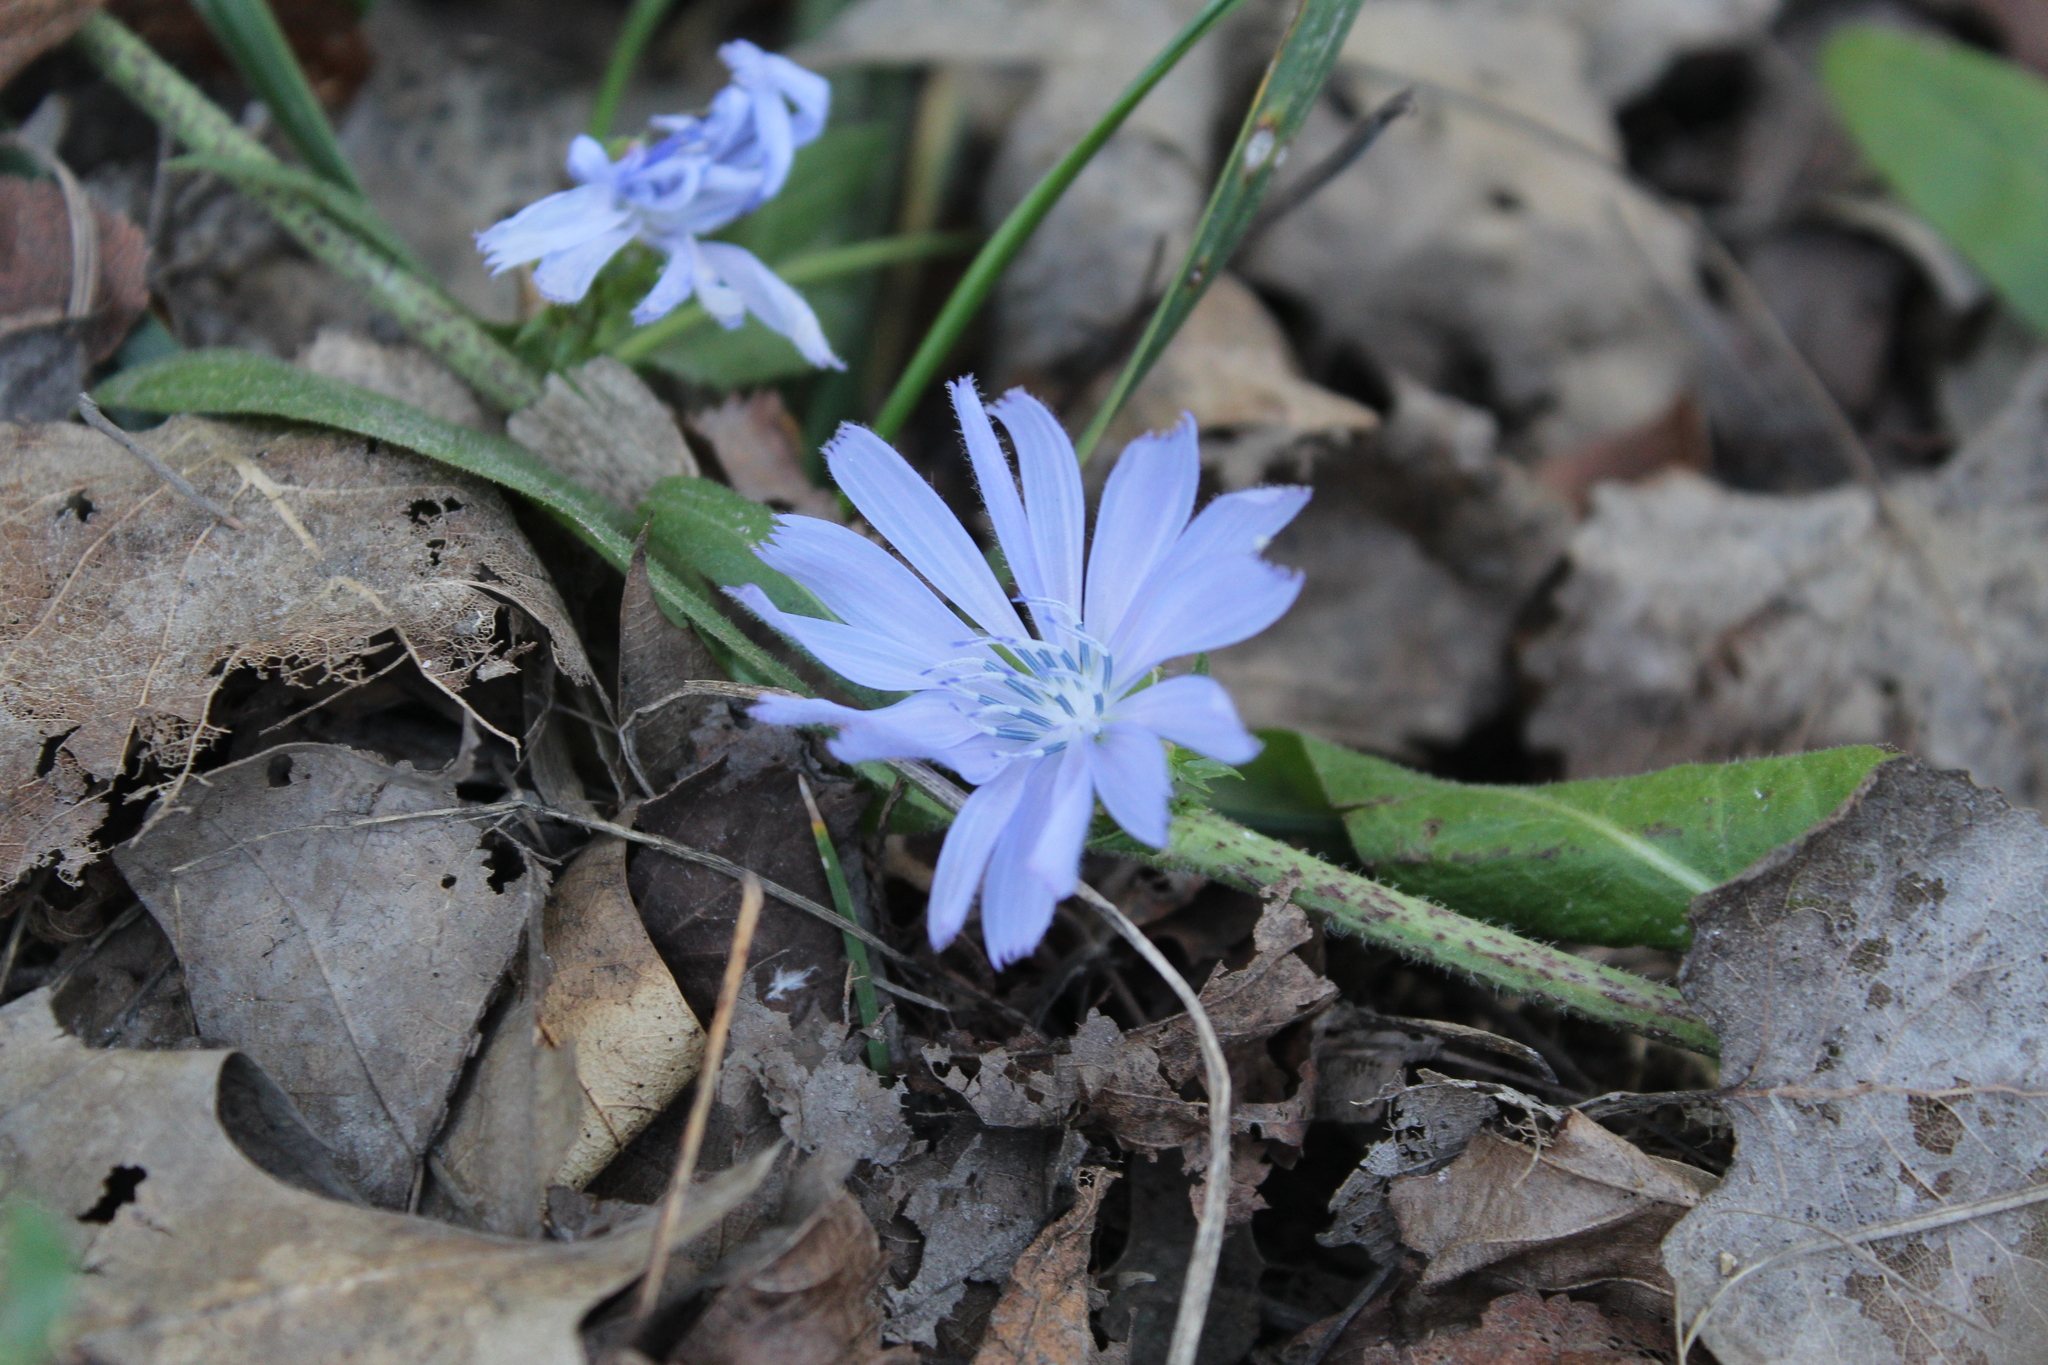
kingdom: Plantae
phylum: Tracheophyta
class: Magnoliopsida
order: Asterales
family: Asteraceae
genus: Cichorium
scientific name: Cichorium intybus
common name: Chicory
